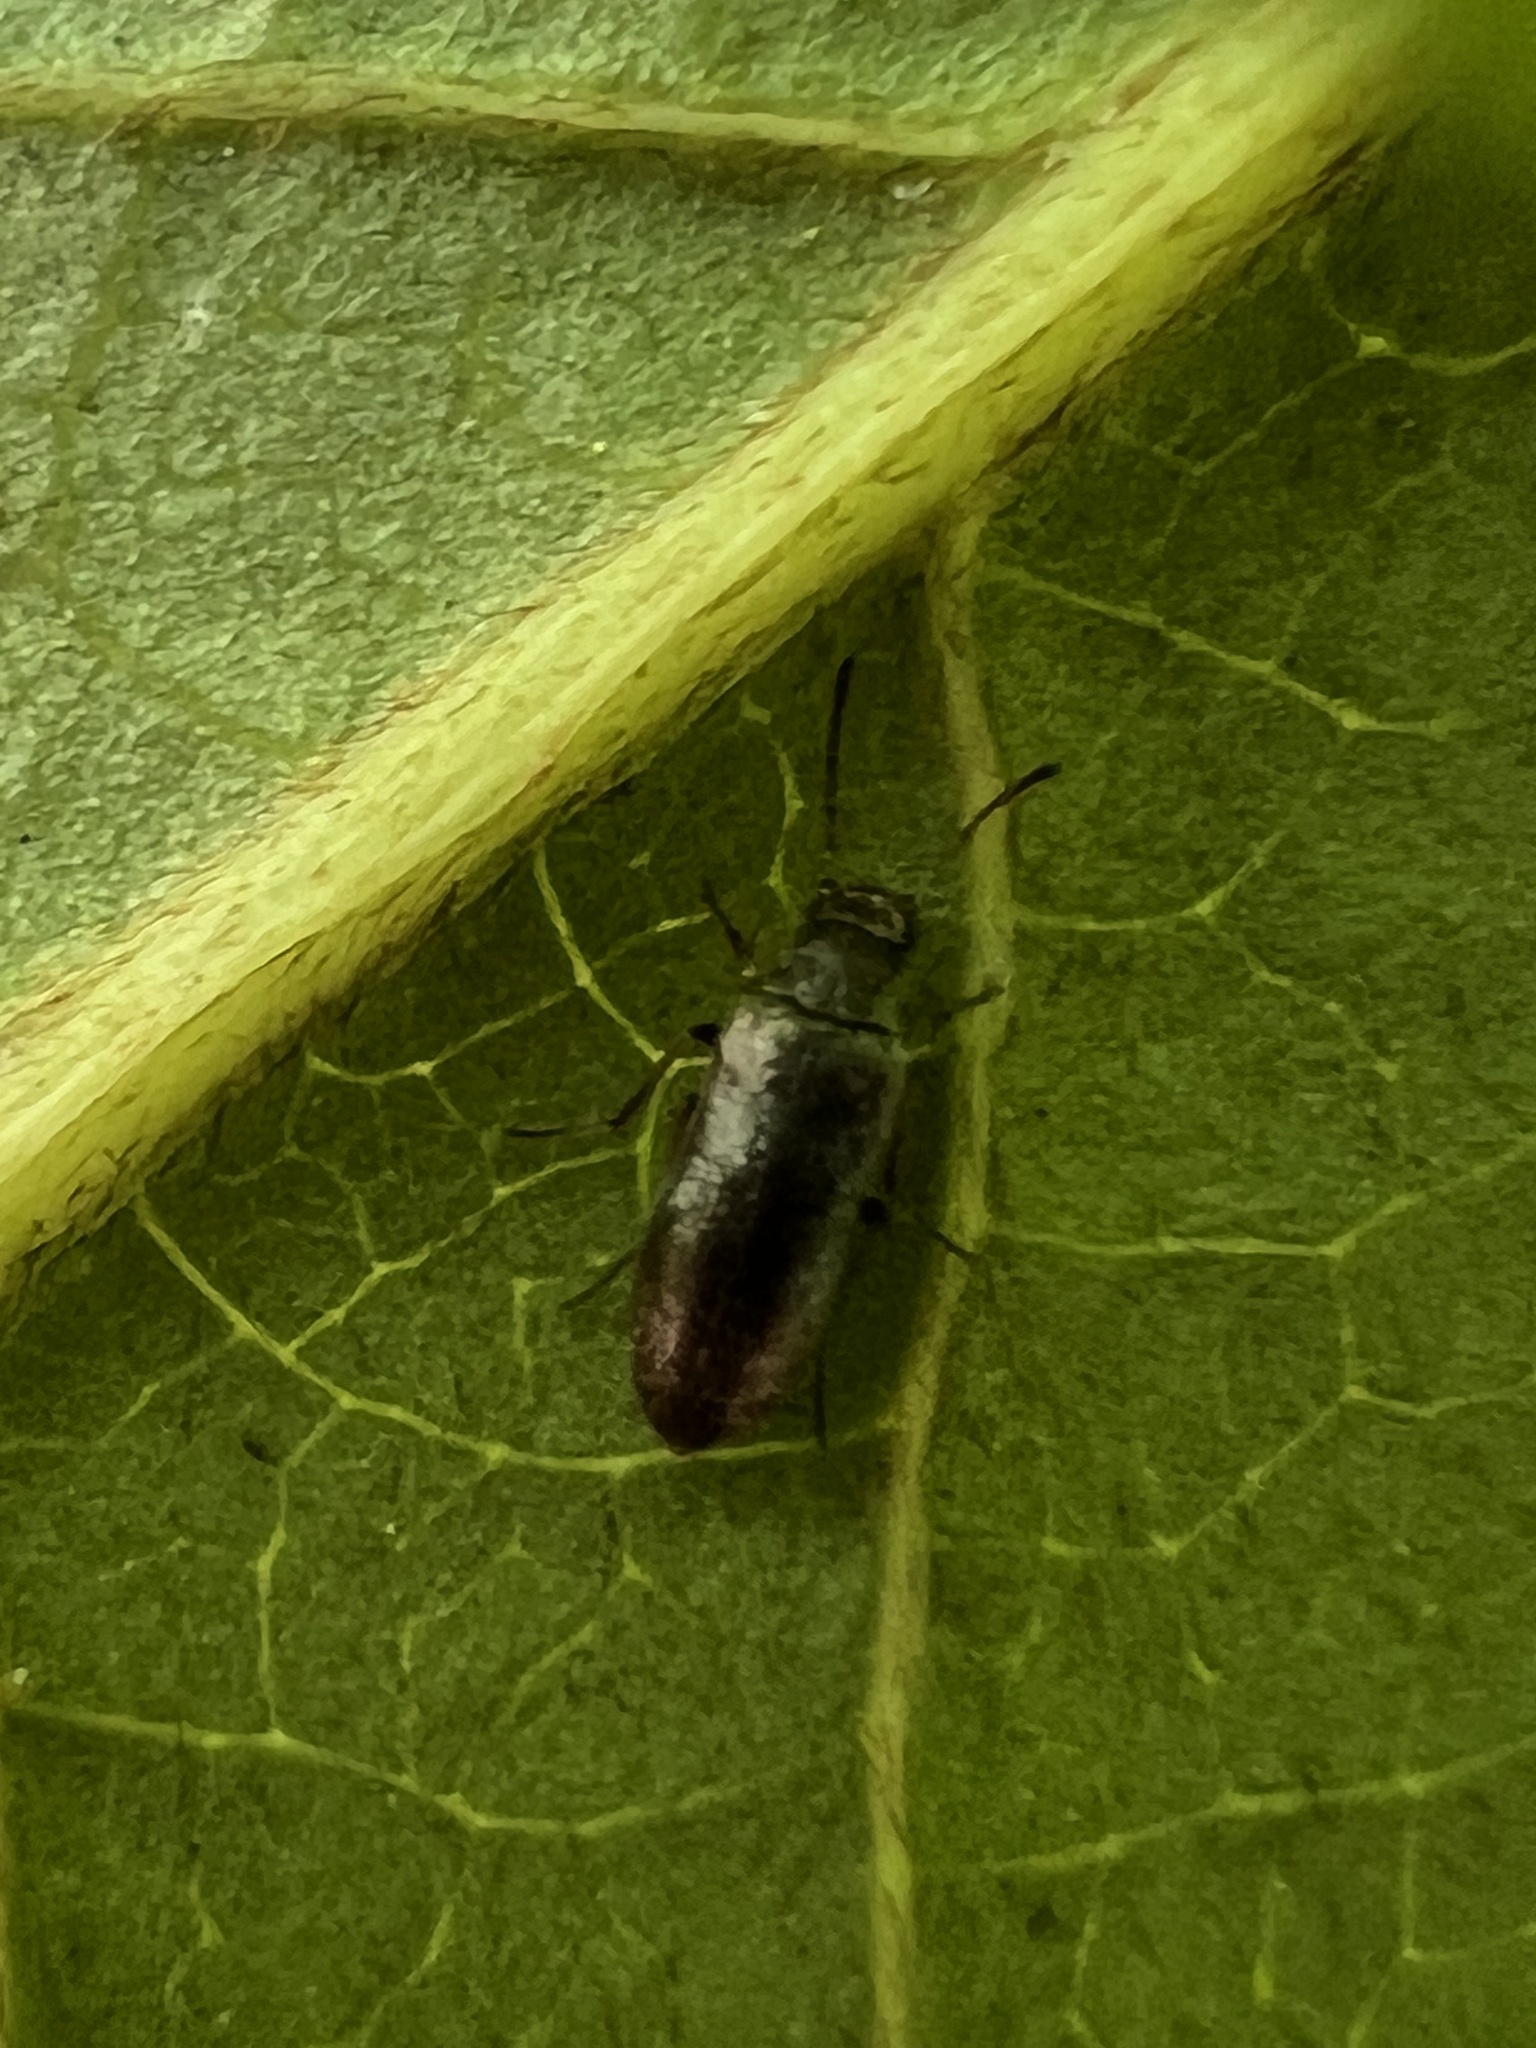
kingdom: Animalia
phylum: Arthropoda
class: Insecta
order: Coleoptera
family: Melandryidae
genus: Microtonus
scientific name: Microtonus sericans
